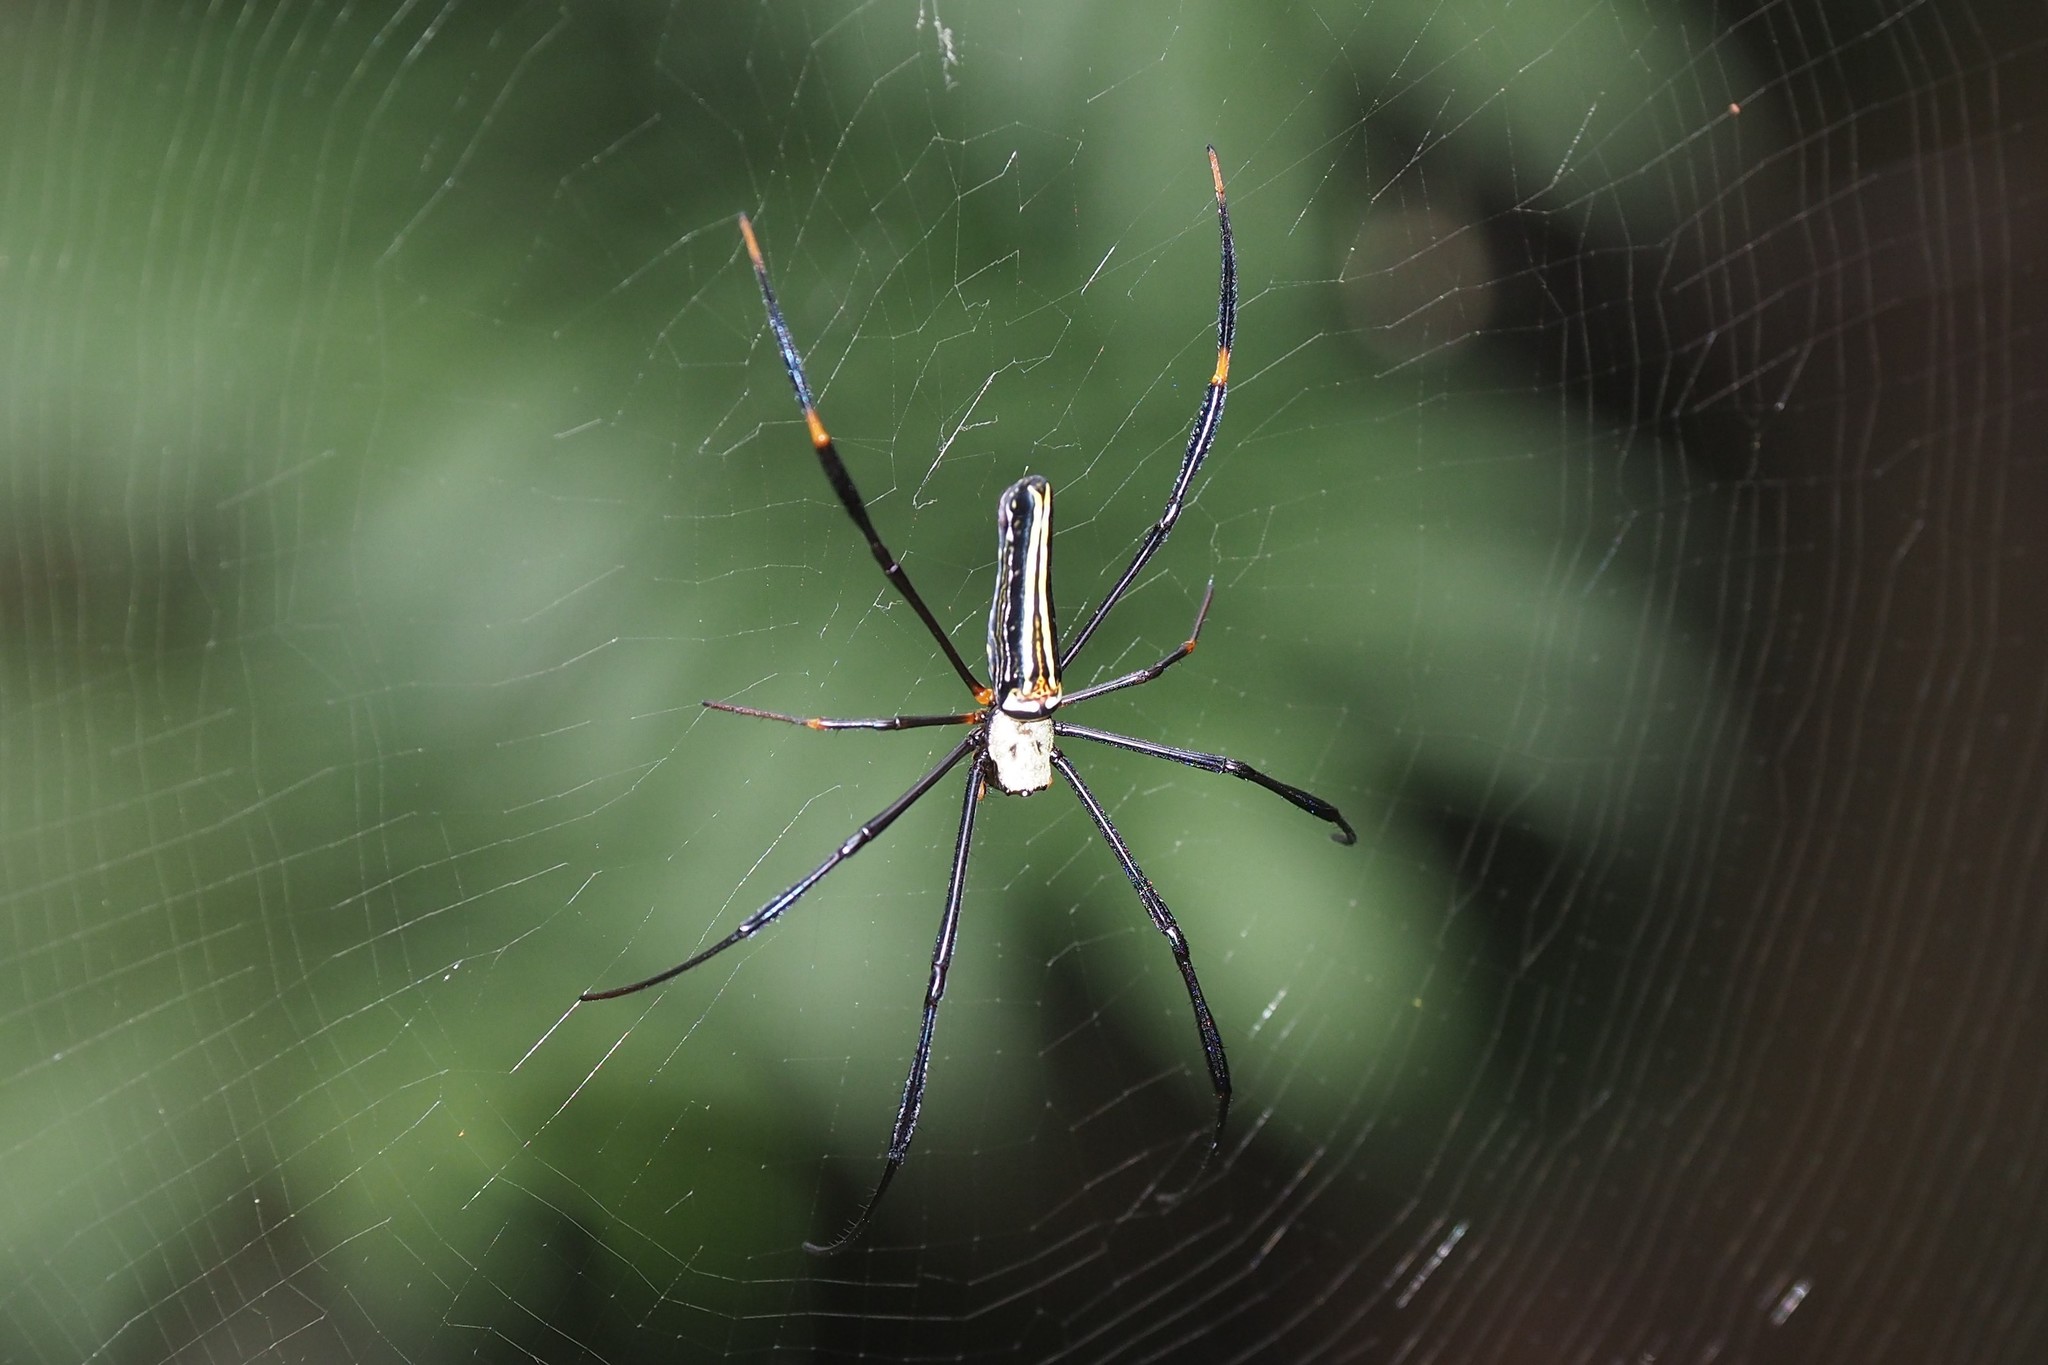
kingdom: Animalia
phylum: Arthropoda
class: Arachnida
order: Araneae
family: Araneidae
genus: Nephila
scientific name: Nephila pilipes
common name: Giant golden orb weaver
